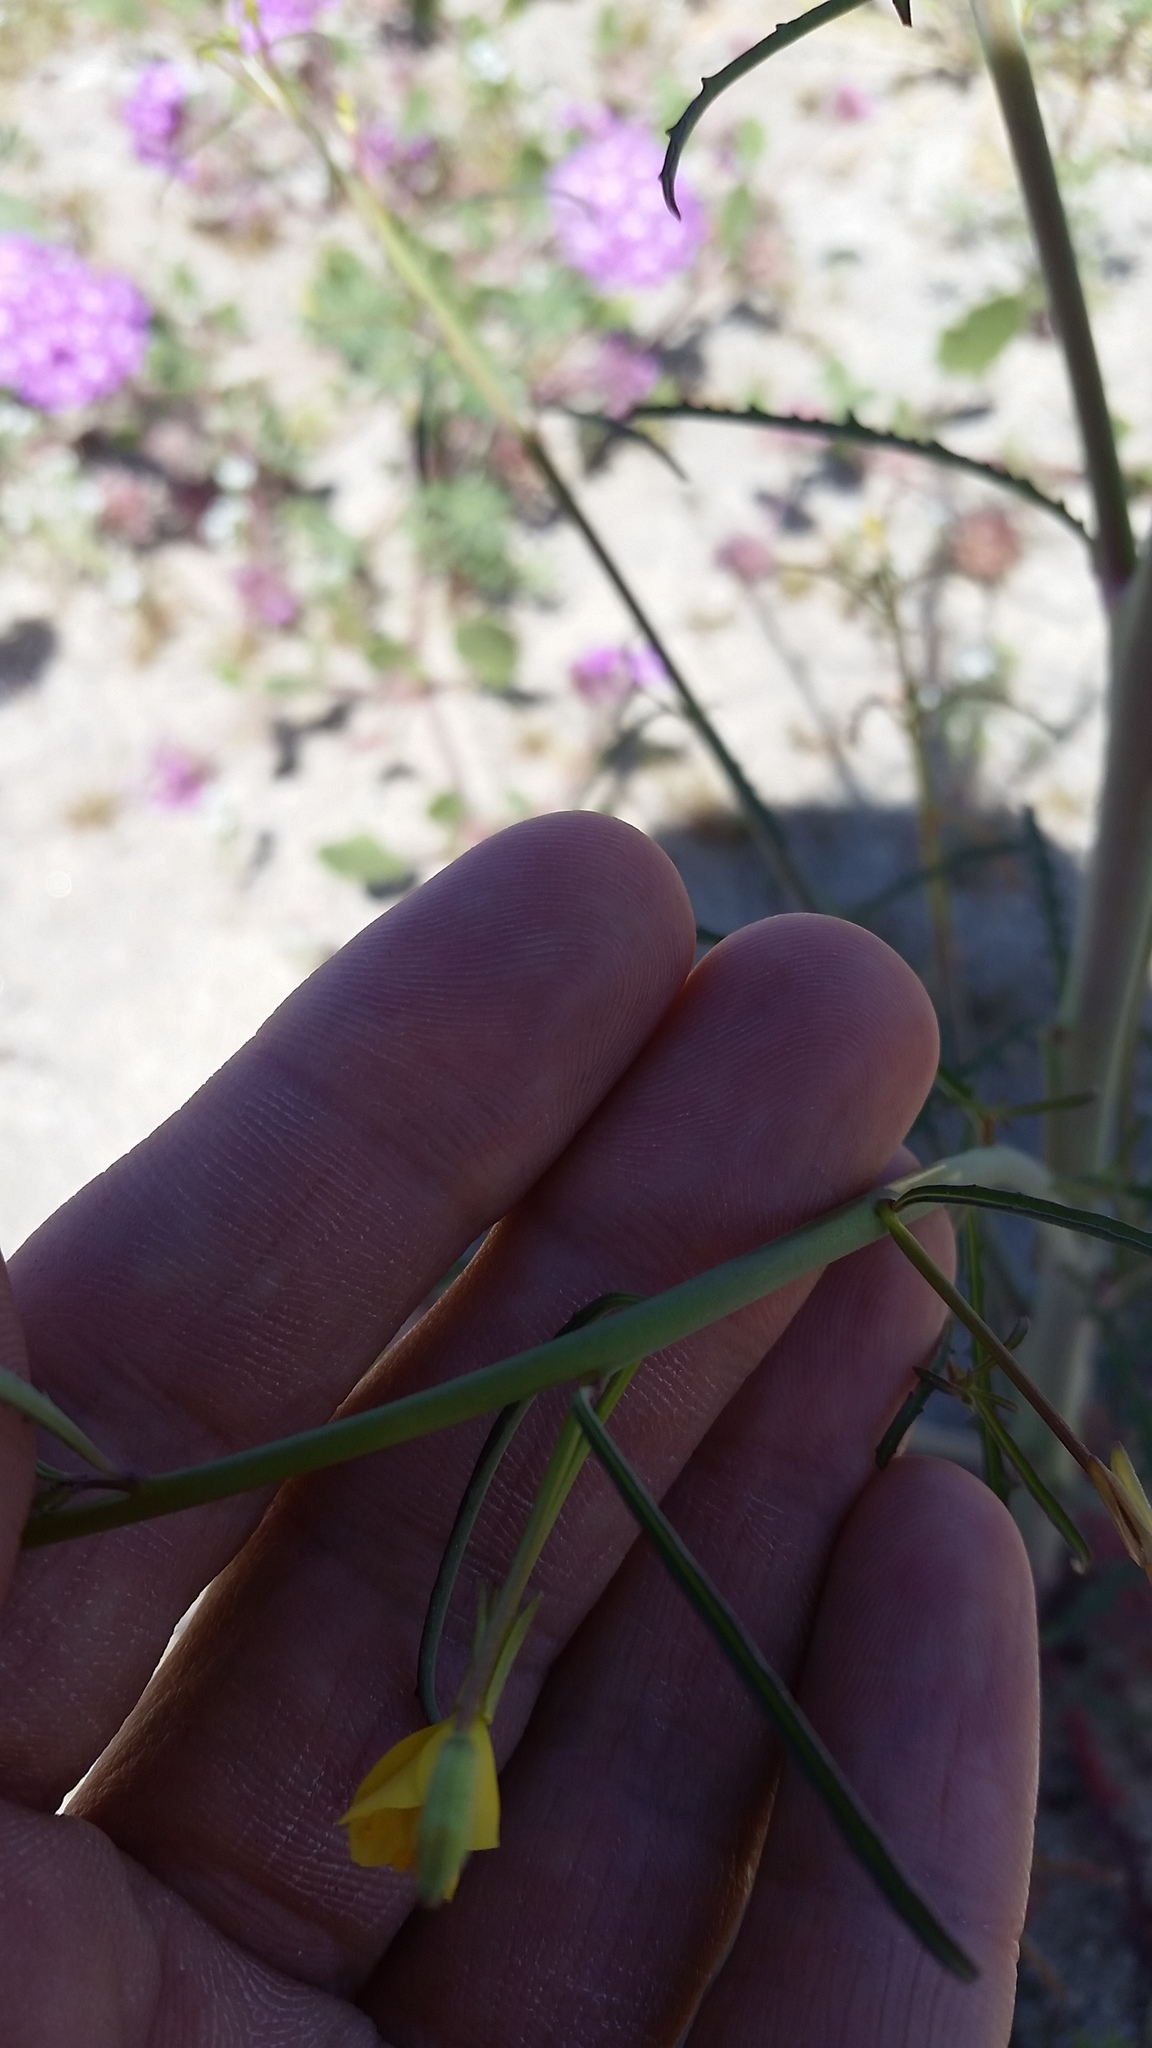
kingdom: Plantae
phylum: Tracheophyta
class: Magnoliopsida
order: Myrtales
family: Onagraceae
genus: Eulobus
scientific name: Eulobus californicus
